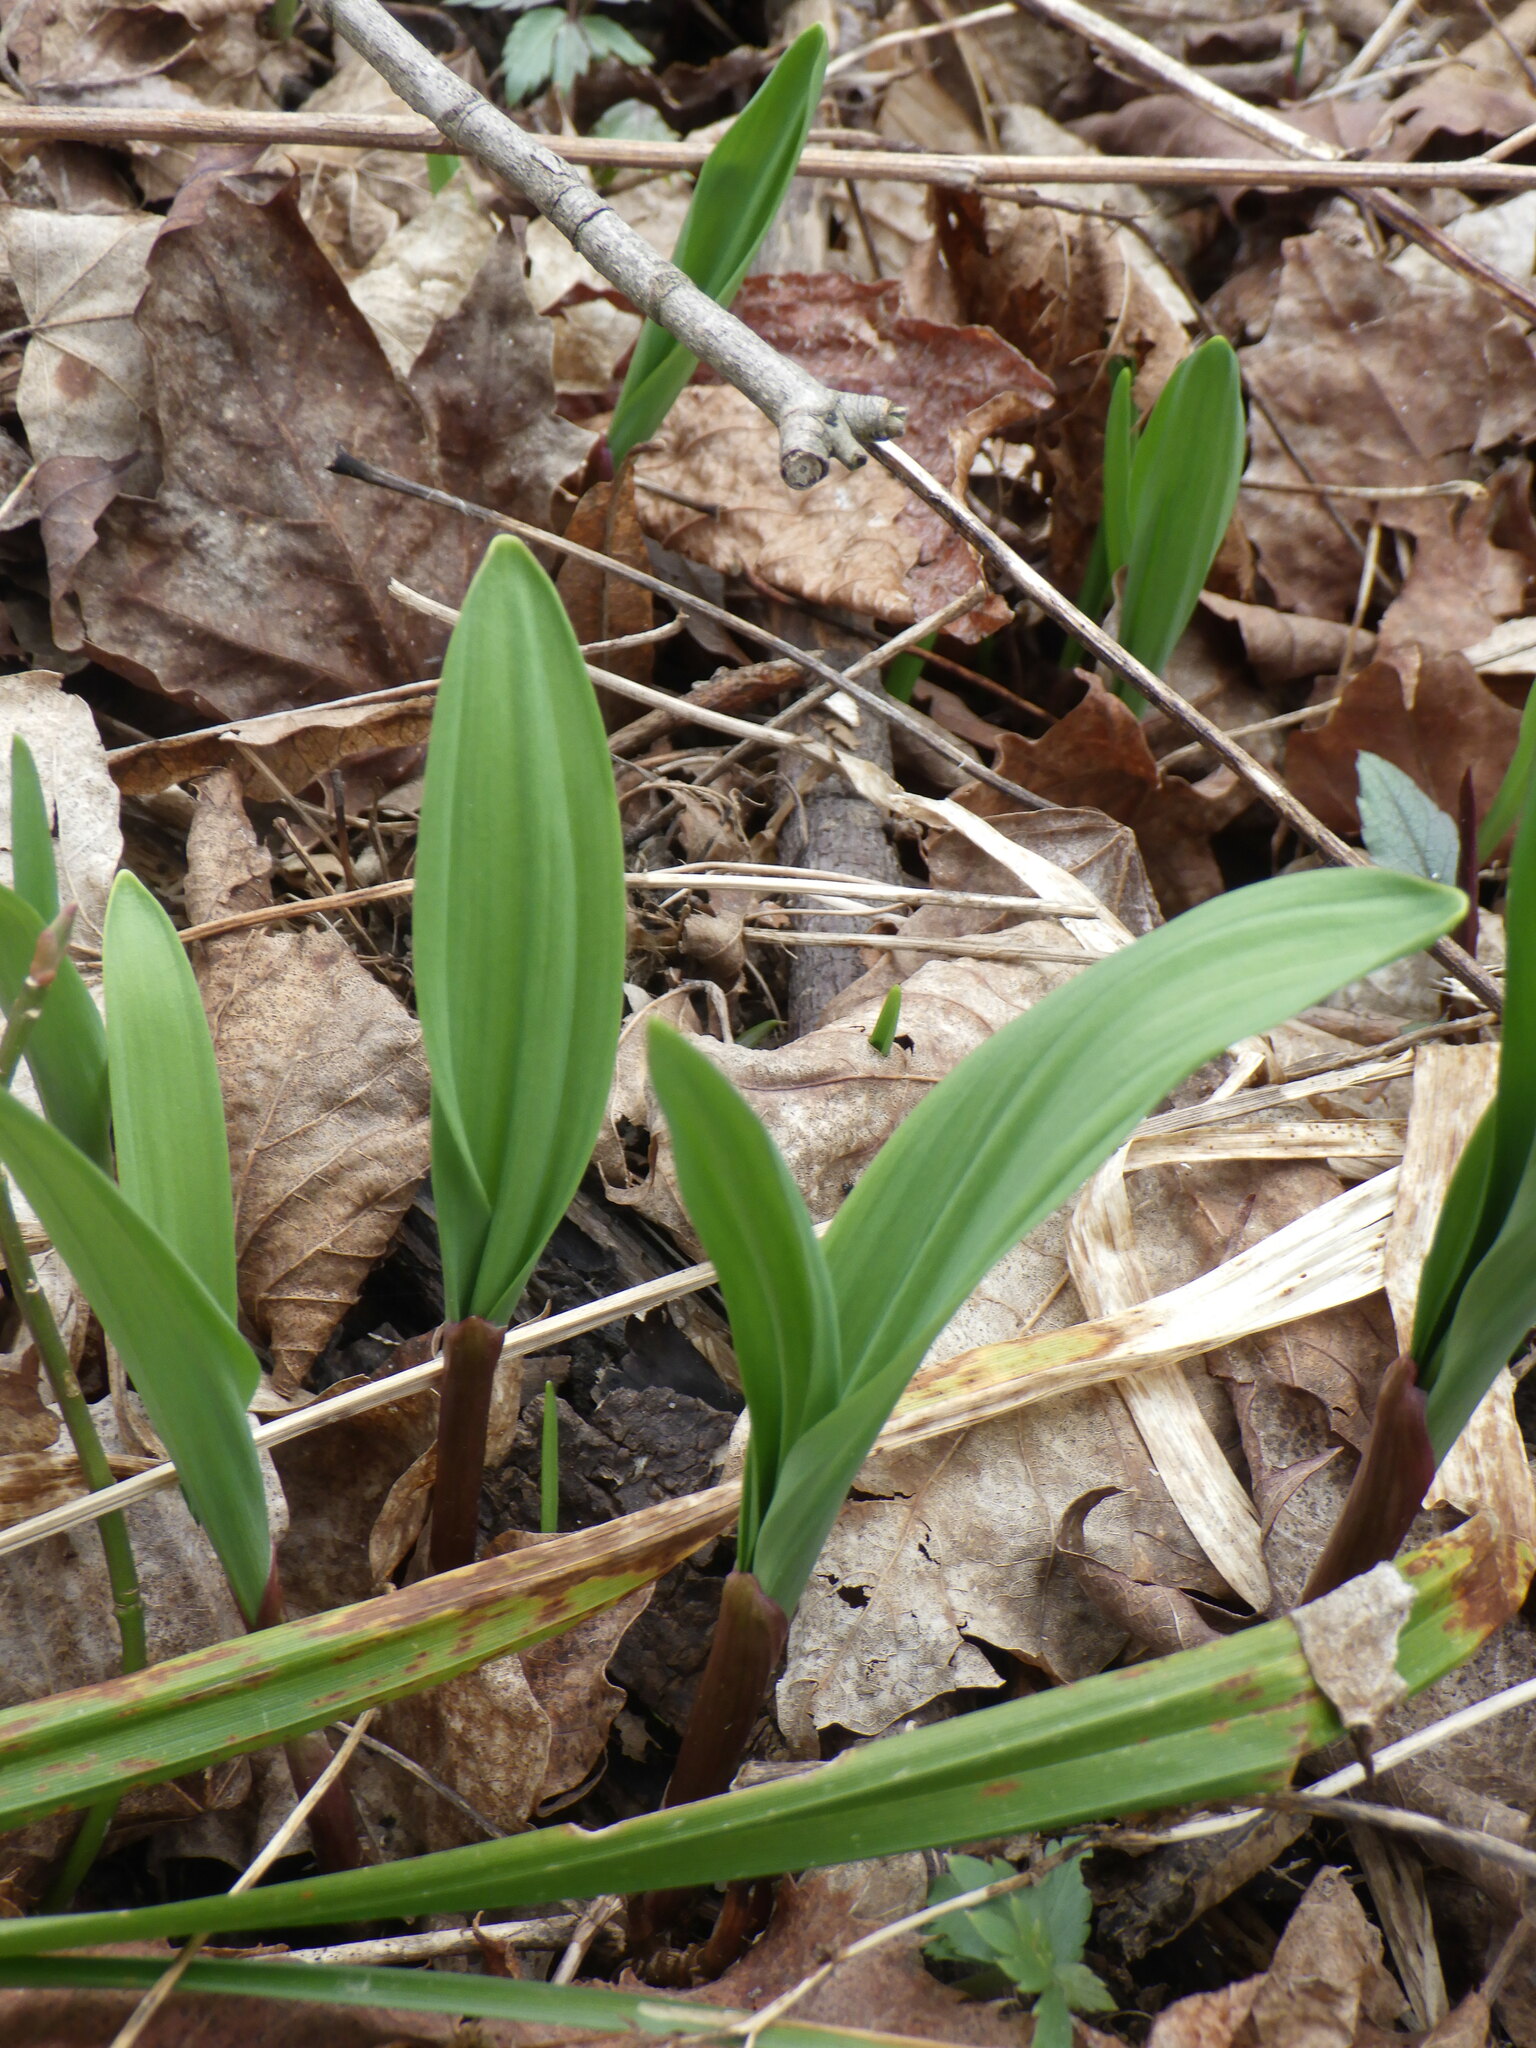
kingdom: Plantae
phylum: Tracheophyta
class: Liliopsida
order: Asparagales
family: Amaryllidaceae
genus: Allium
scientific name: Allium tricoccum
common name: Ramp
